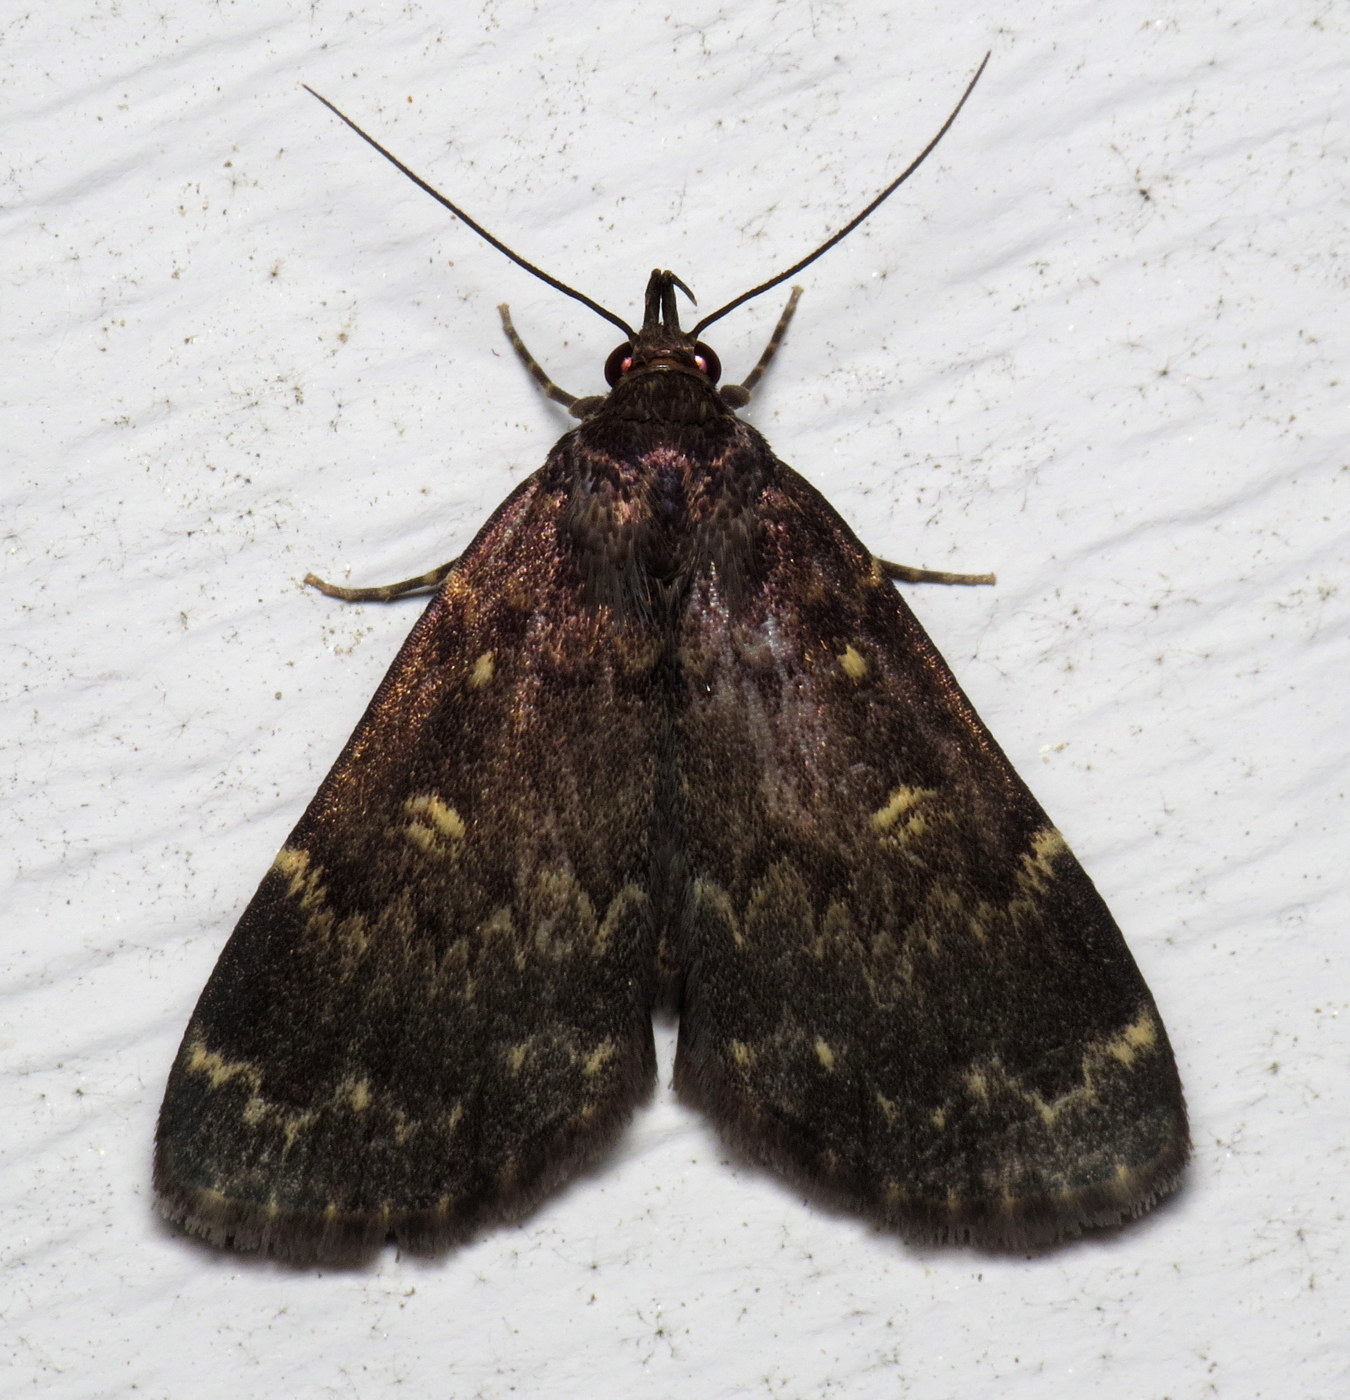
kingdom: Animalia
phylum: Arthropoda
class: Insecta
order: Lepidoptera
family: Erebidae
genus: Idia
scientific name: Idia lubricalis
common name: Twin-striped tabby
